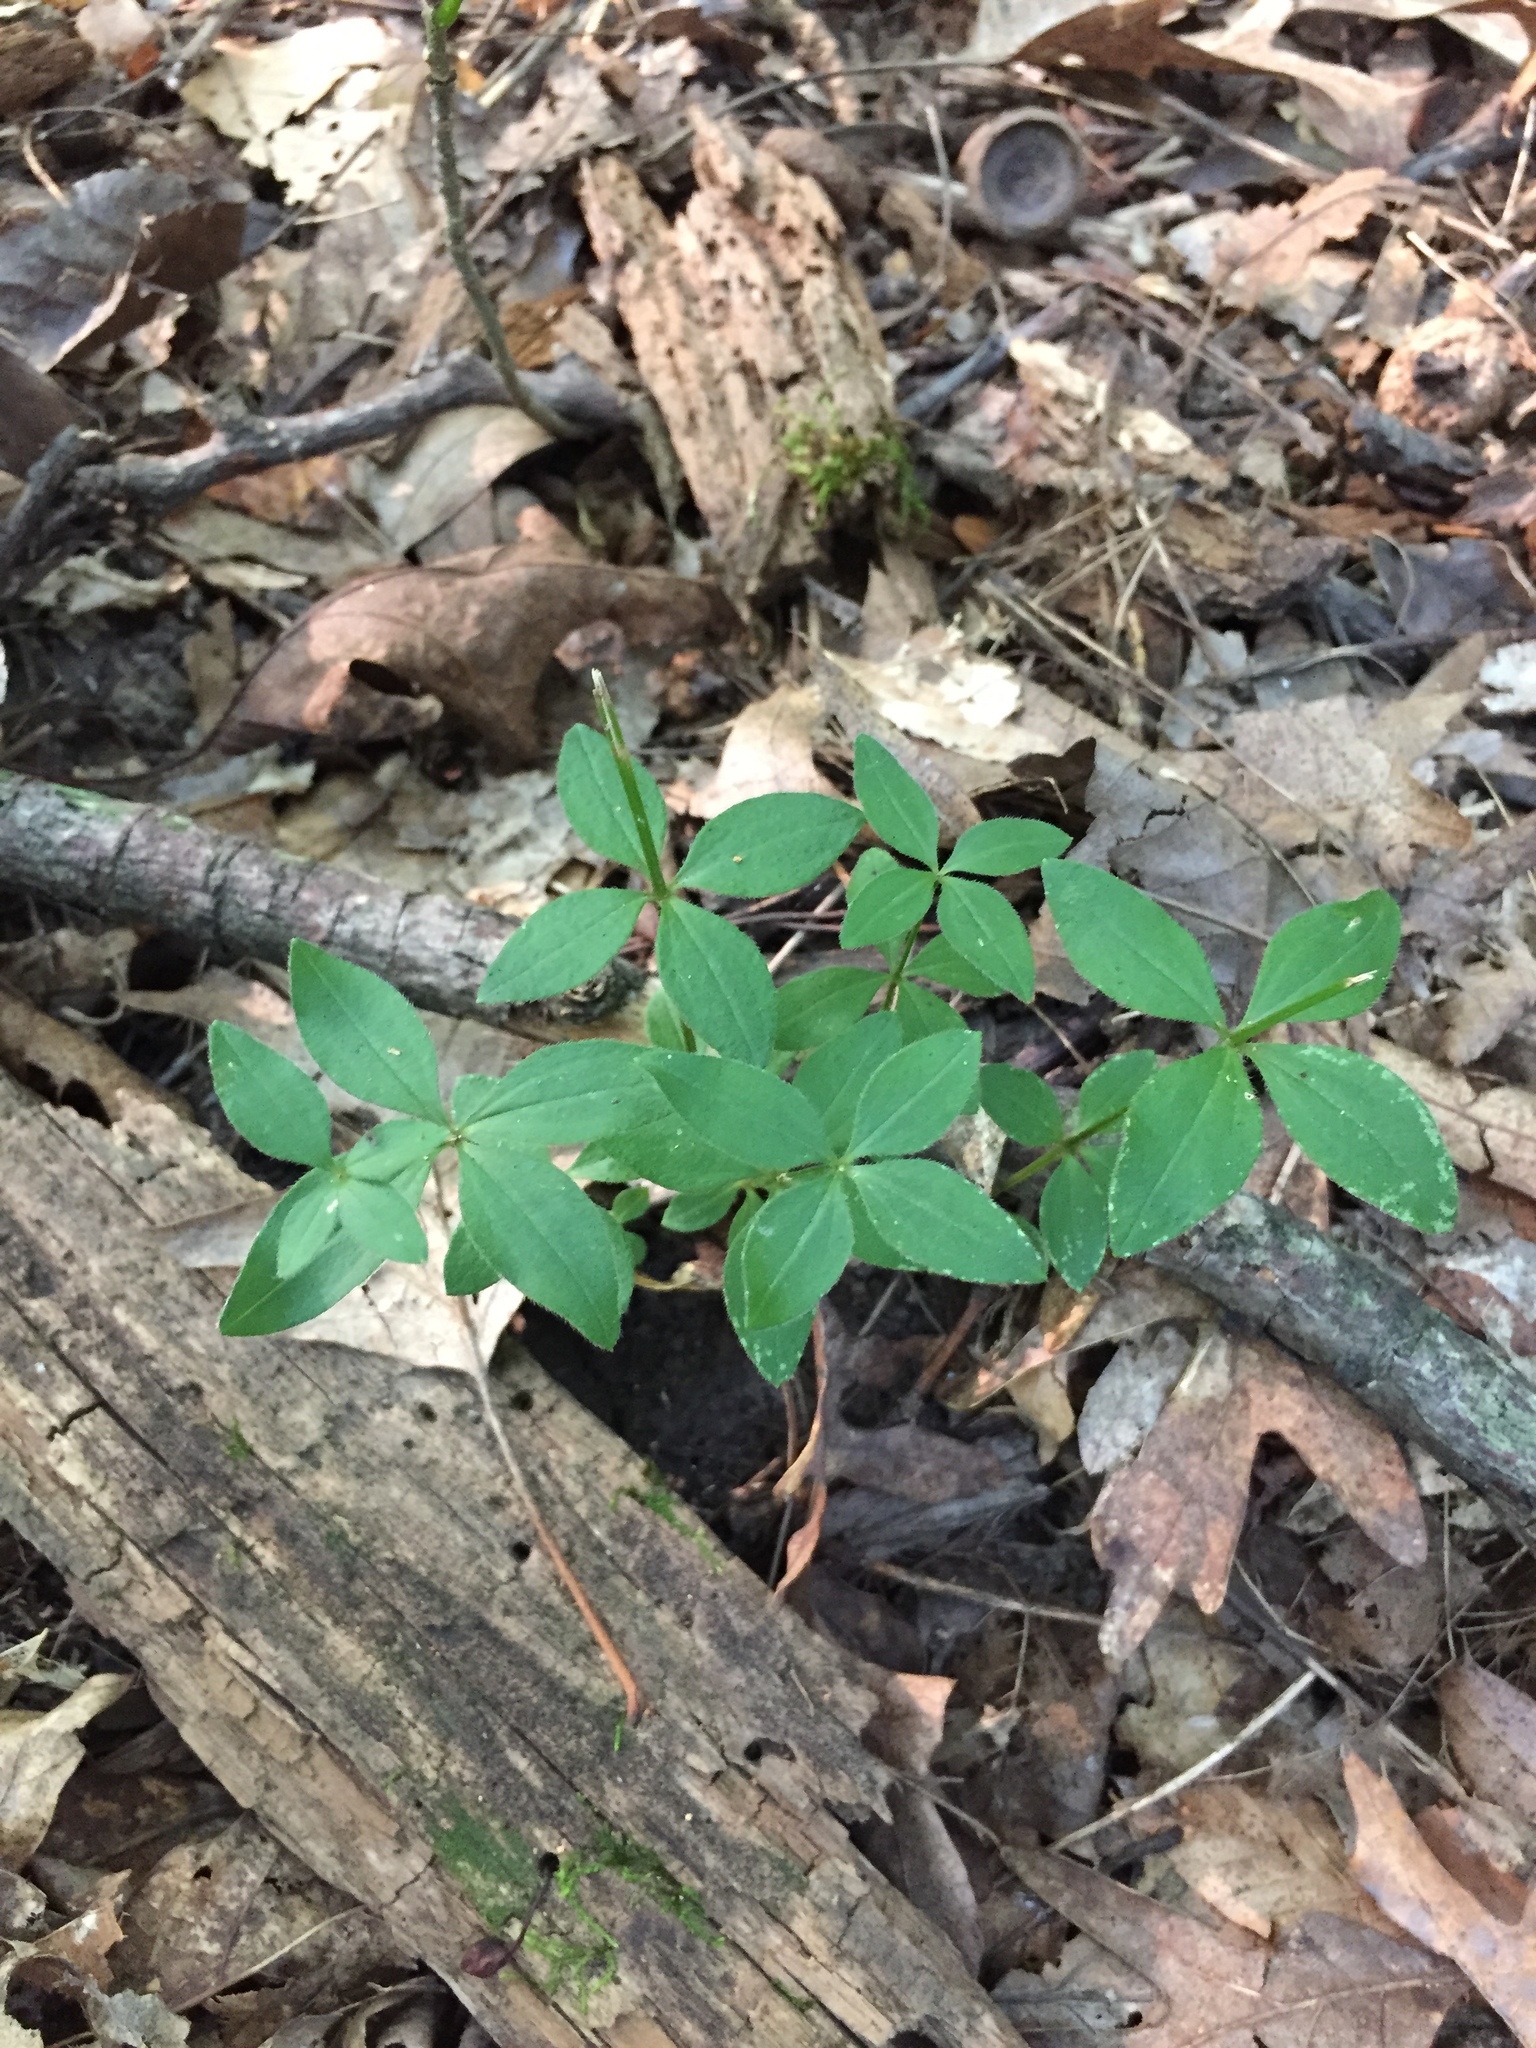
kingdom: Plantae
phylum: Tracheophyta
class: Magnoliopsida
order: Gentianales
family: Rubiaceae
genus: Galium
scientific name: Galium circaezans
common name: Forest bedstraw
